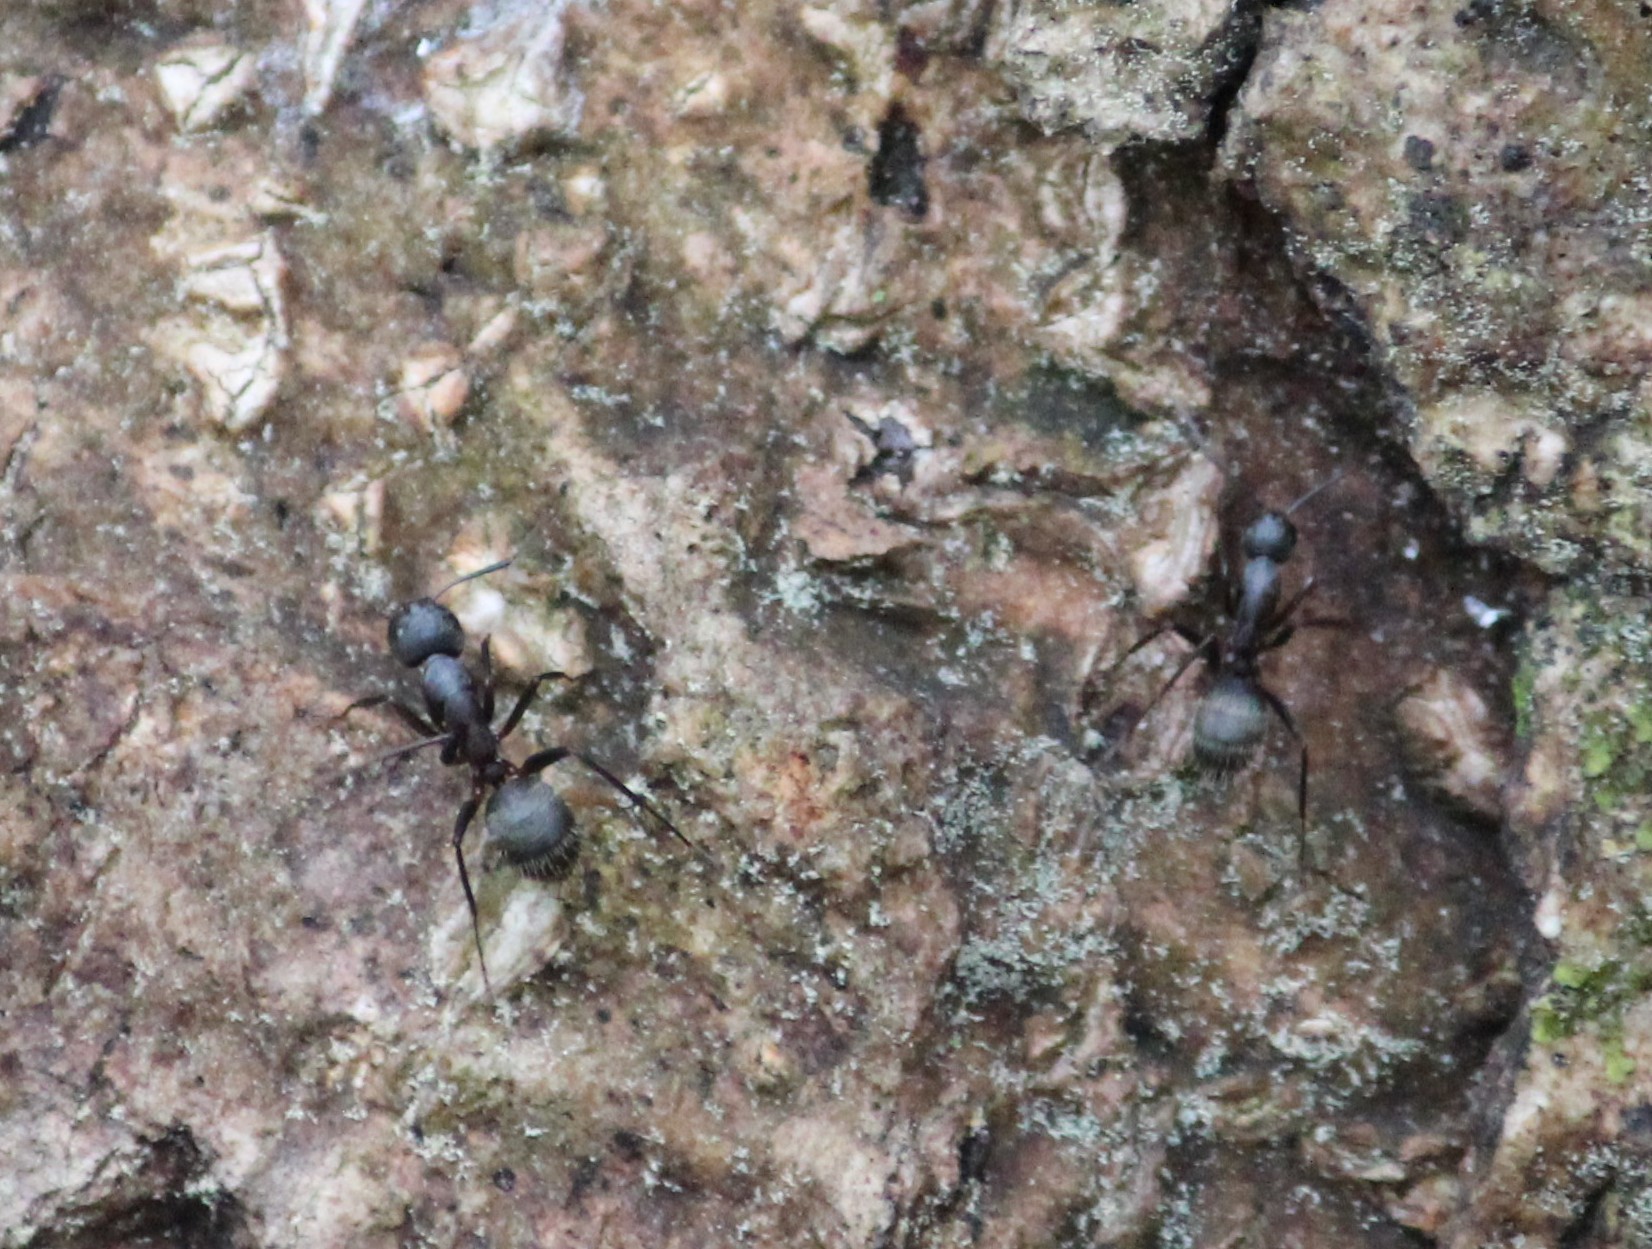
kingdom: Animalia
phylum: Arthropoda
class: Insecta
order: Hymenoptera
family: Formicidae
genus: Camponotus
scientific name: Camponotus pennsylvanicus
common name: Black carpenter ant
